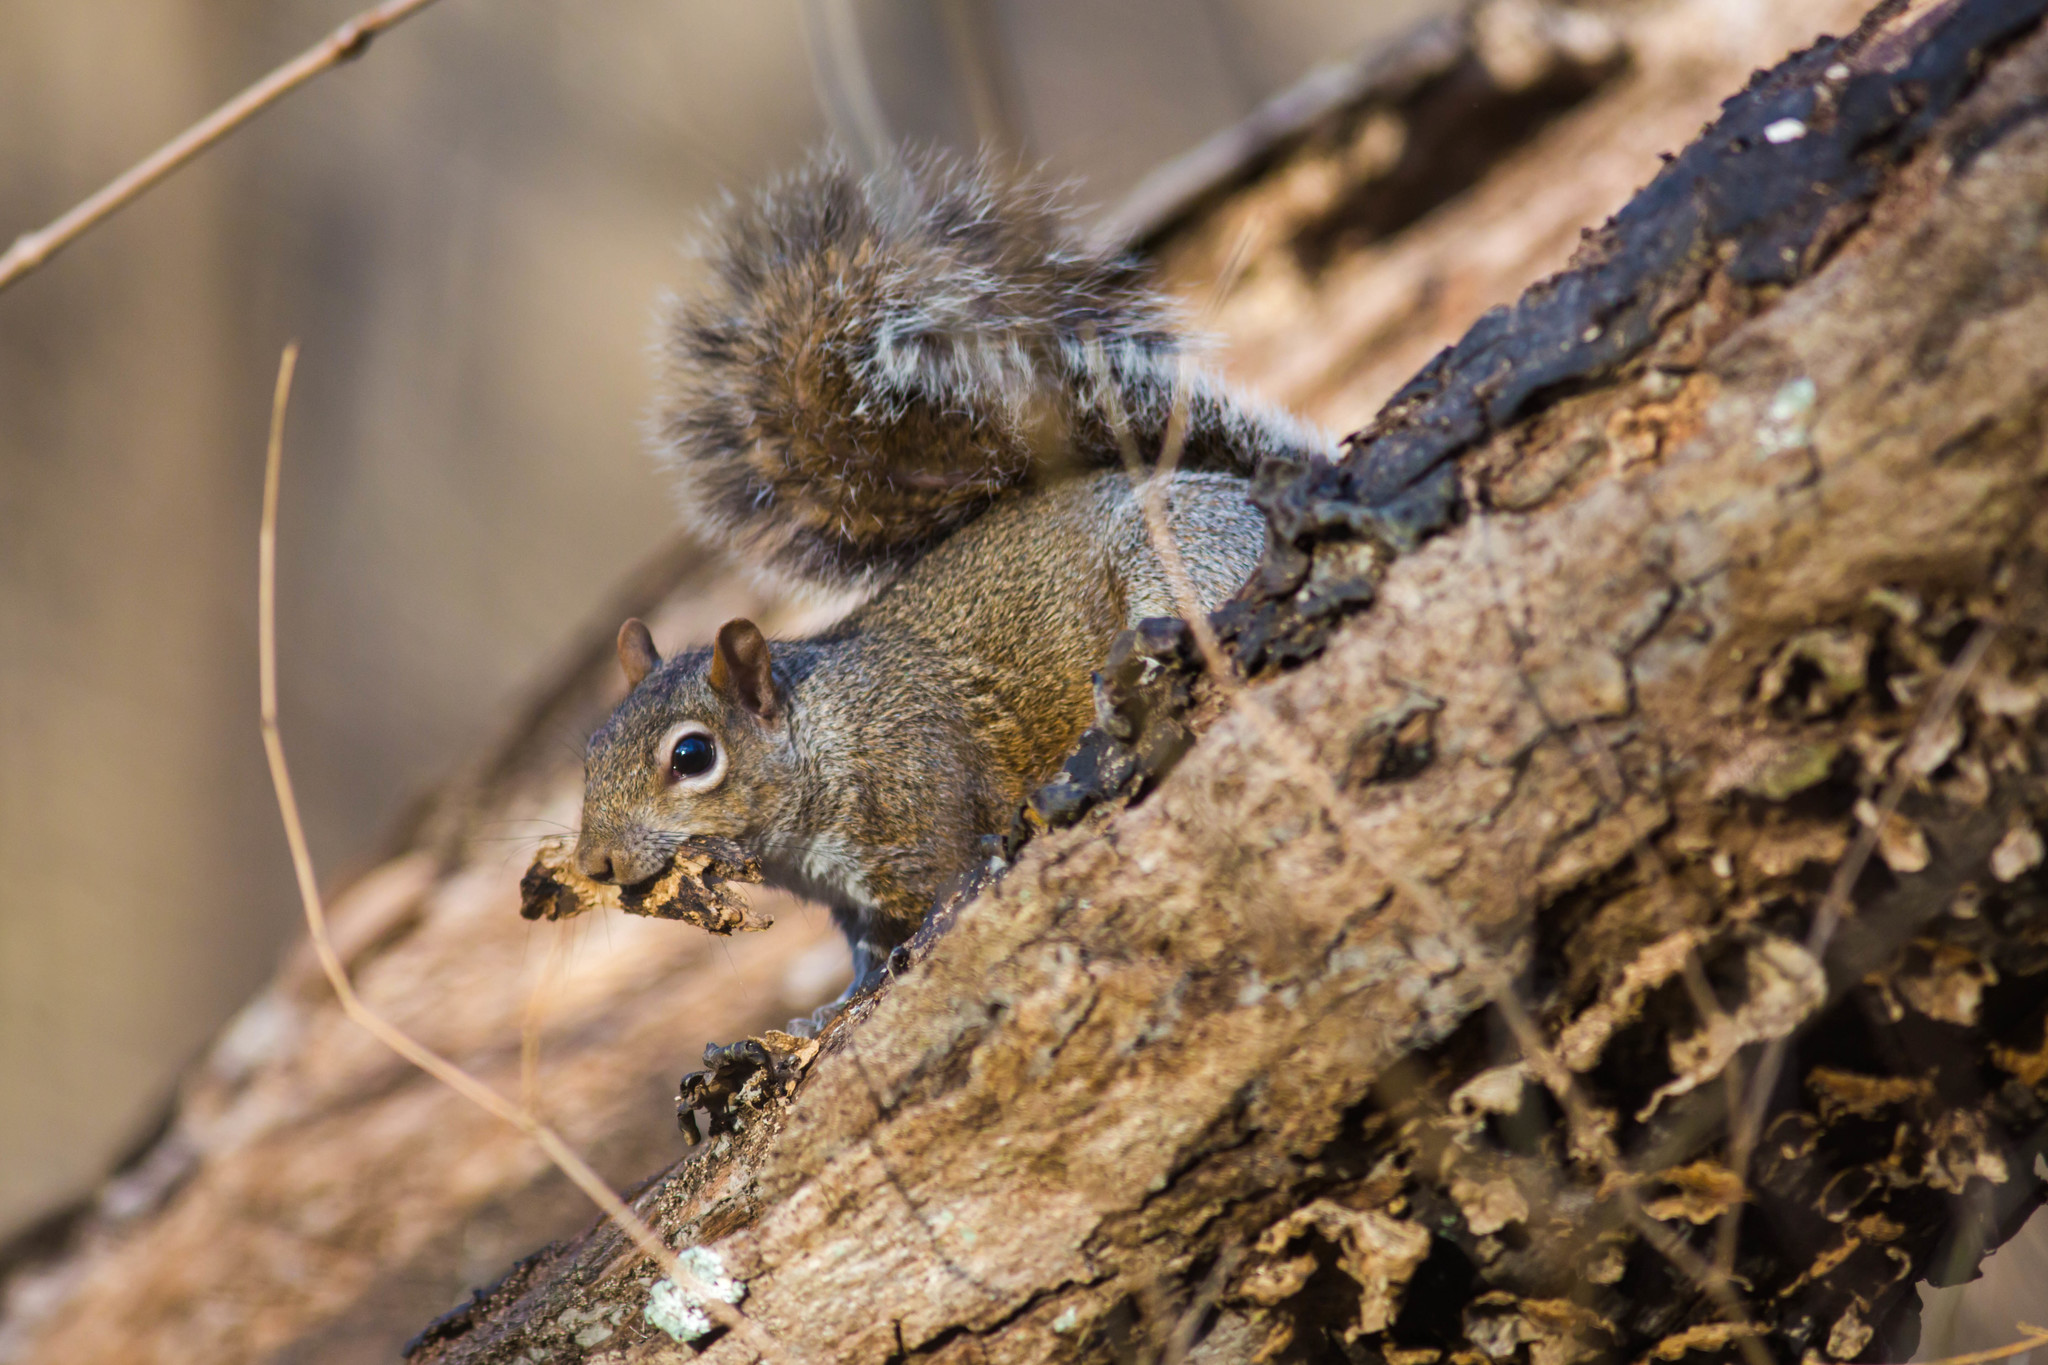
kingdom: Animalia
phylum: Chordata
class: Mammalia
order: Rodentia
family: Sciuridae
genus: Sciurus
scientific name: Sciurus carolinensis
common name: Eastern gray squirrel
